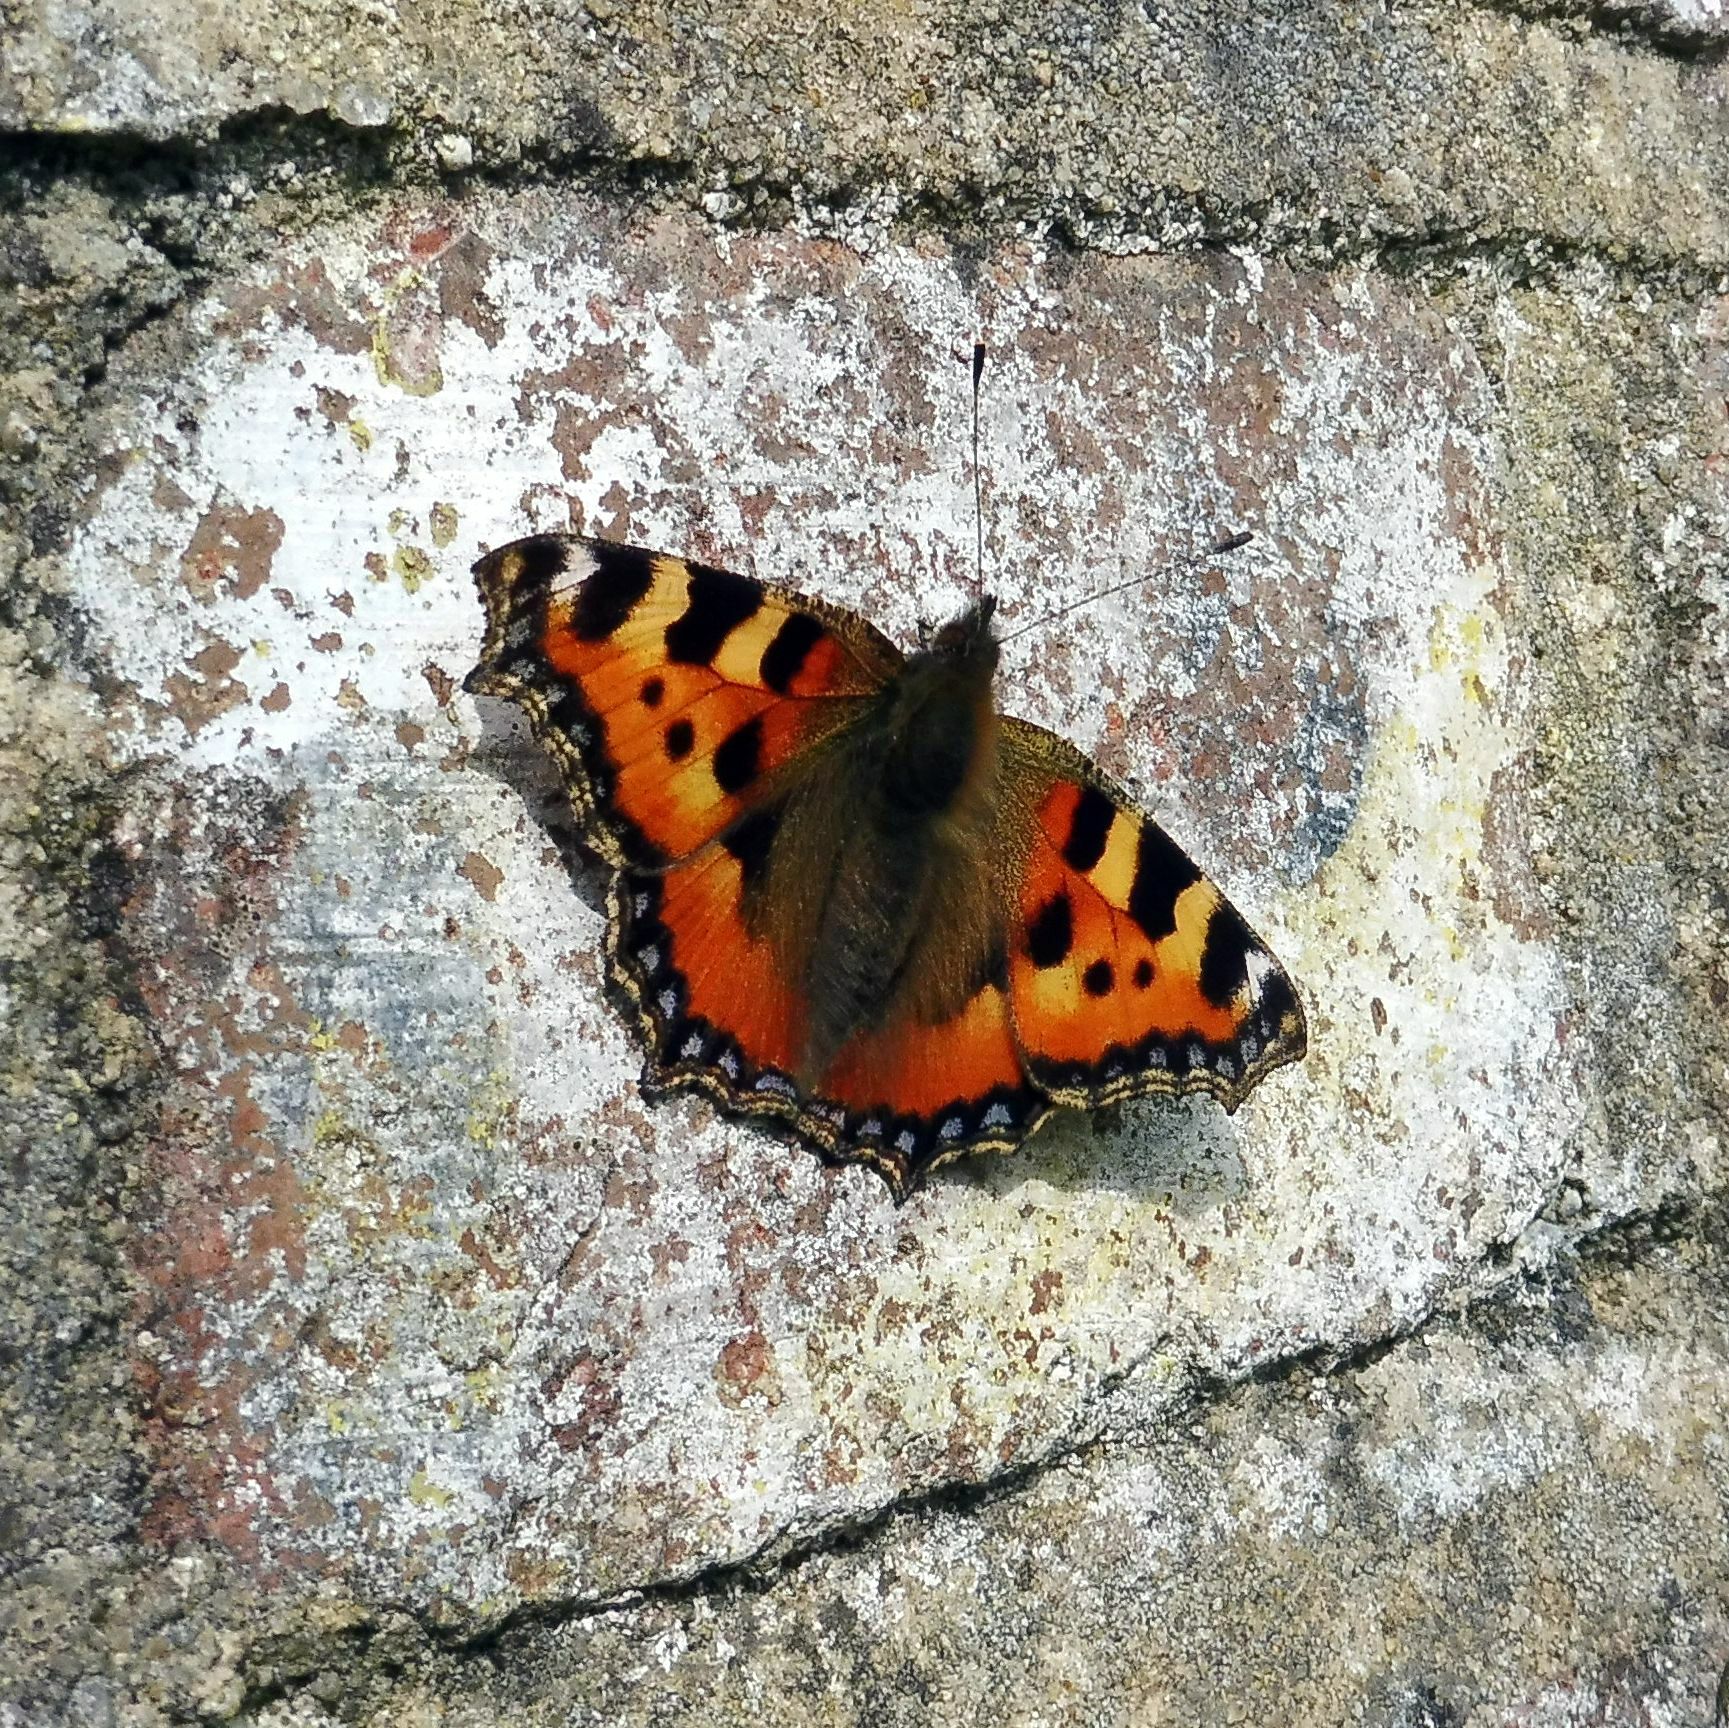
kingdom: Animalia
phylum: Arthropoda
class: Insecta
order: Lepidoptera
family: Nymphalidae
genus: Aglais
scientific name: Aglais urticae
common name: Small tortoiseshell
